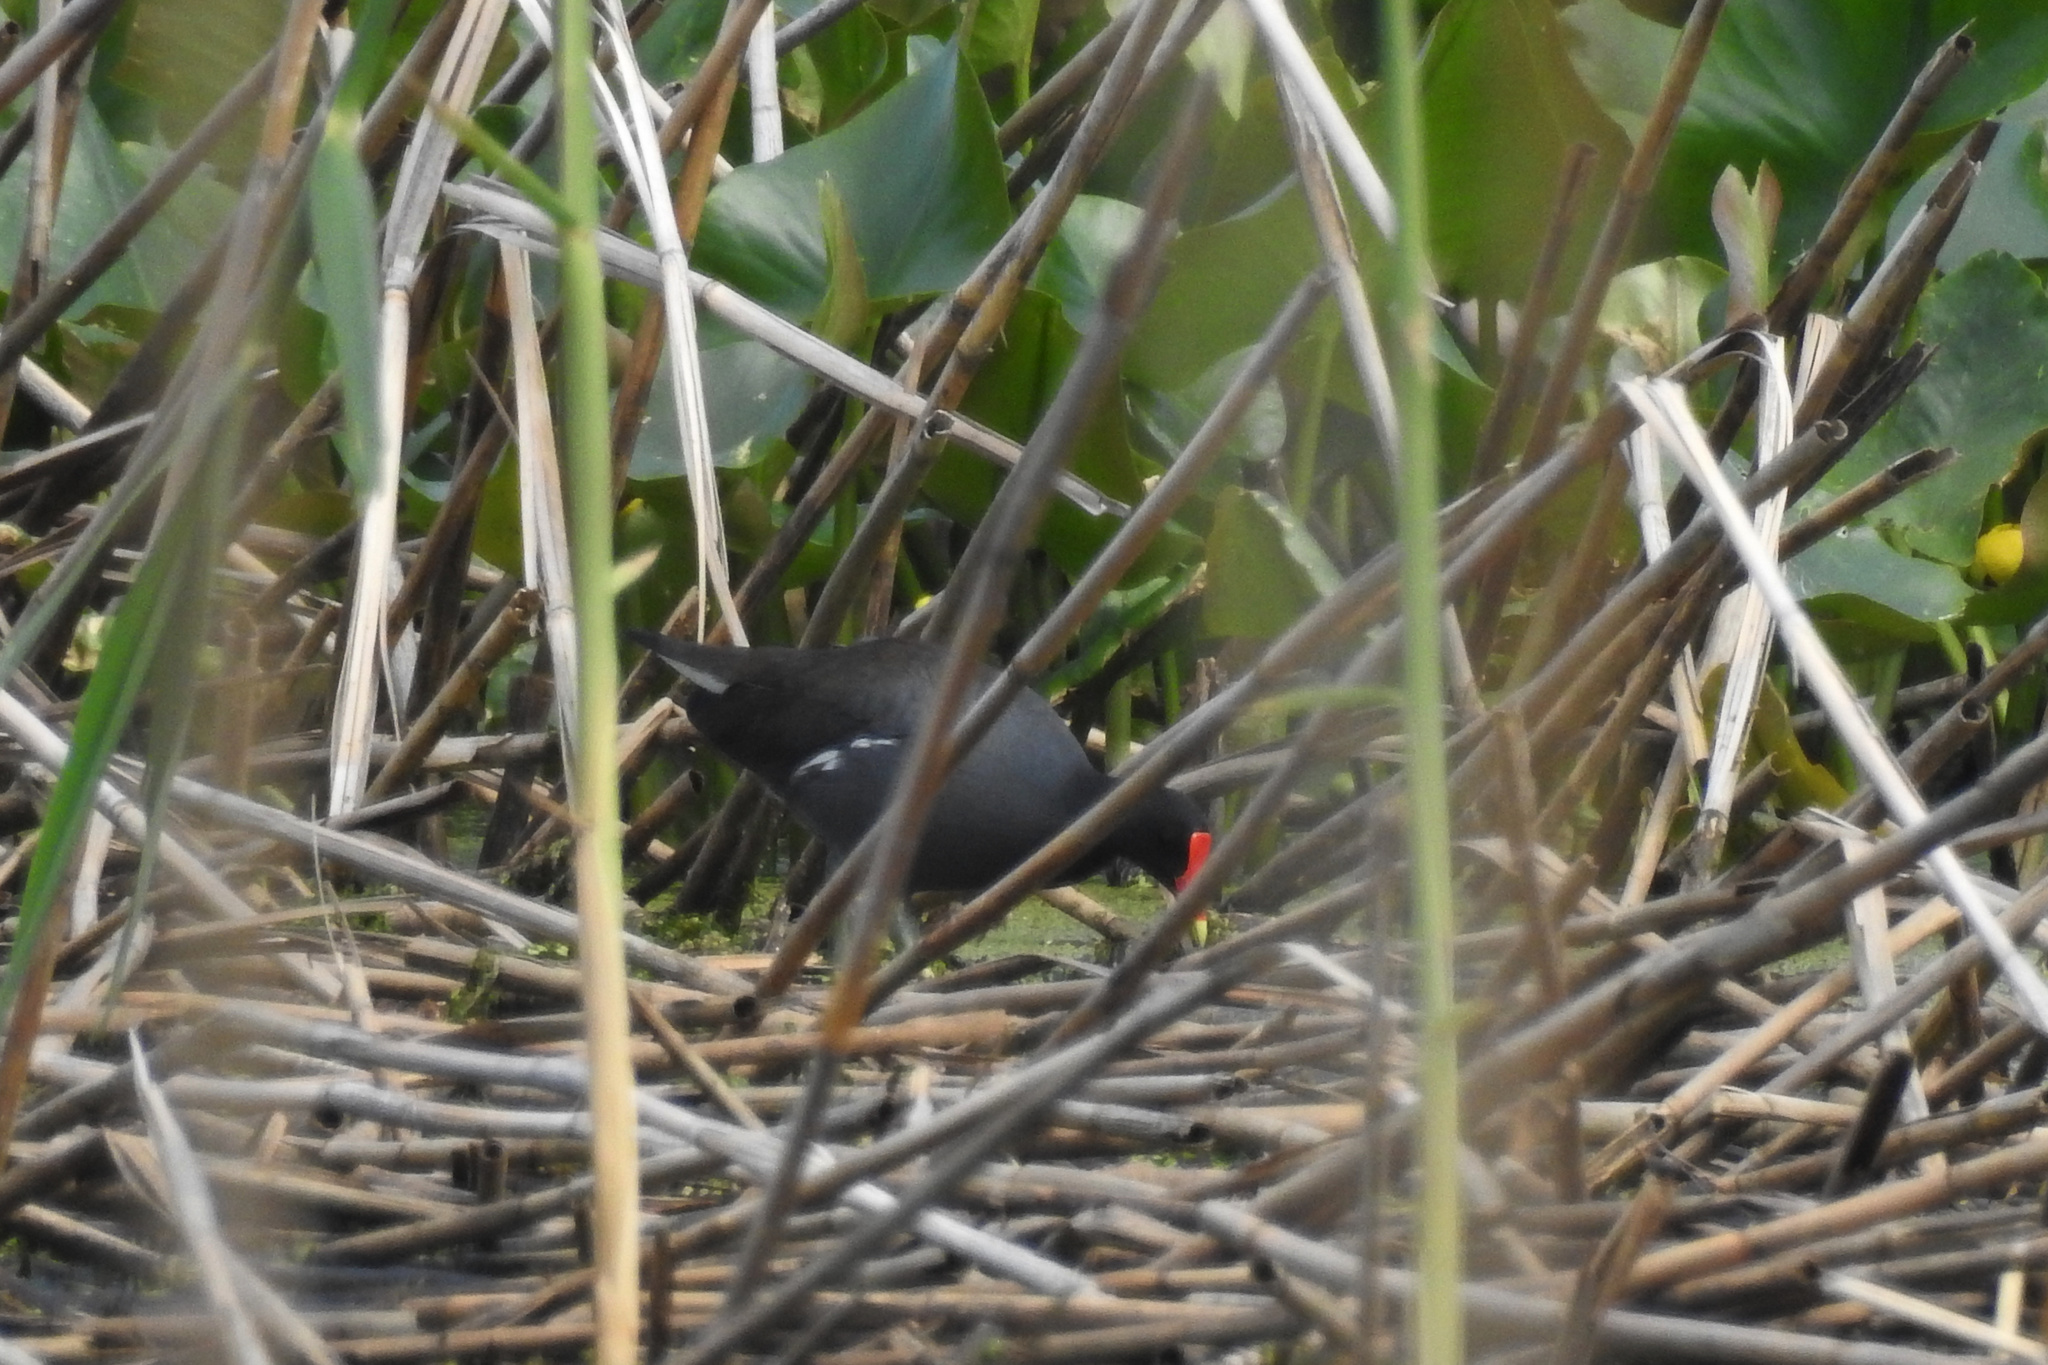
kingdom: Animalia
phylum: Chordata
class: Aves
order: Gruiformes
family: Rallidae
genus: Gallinula
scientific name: Gallinula chloropus
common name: Common moorhen
